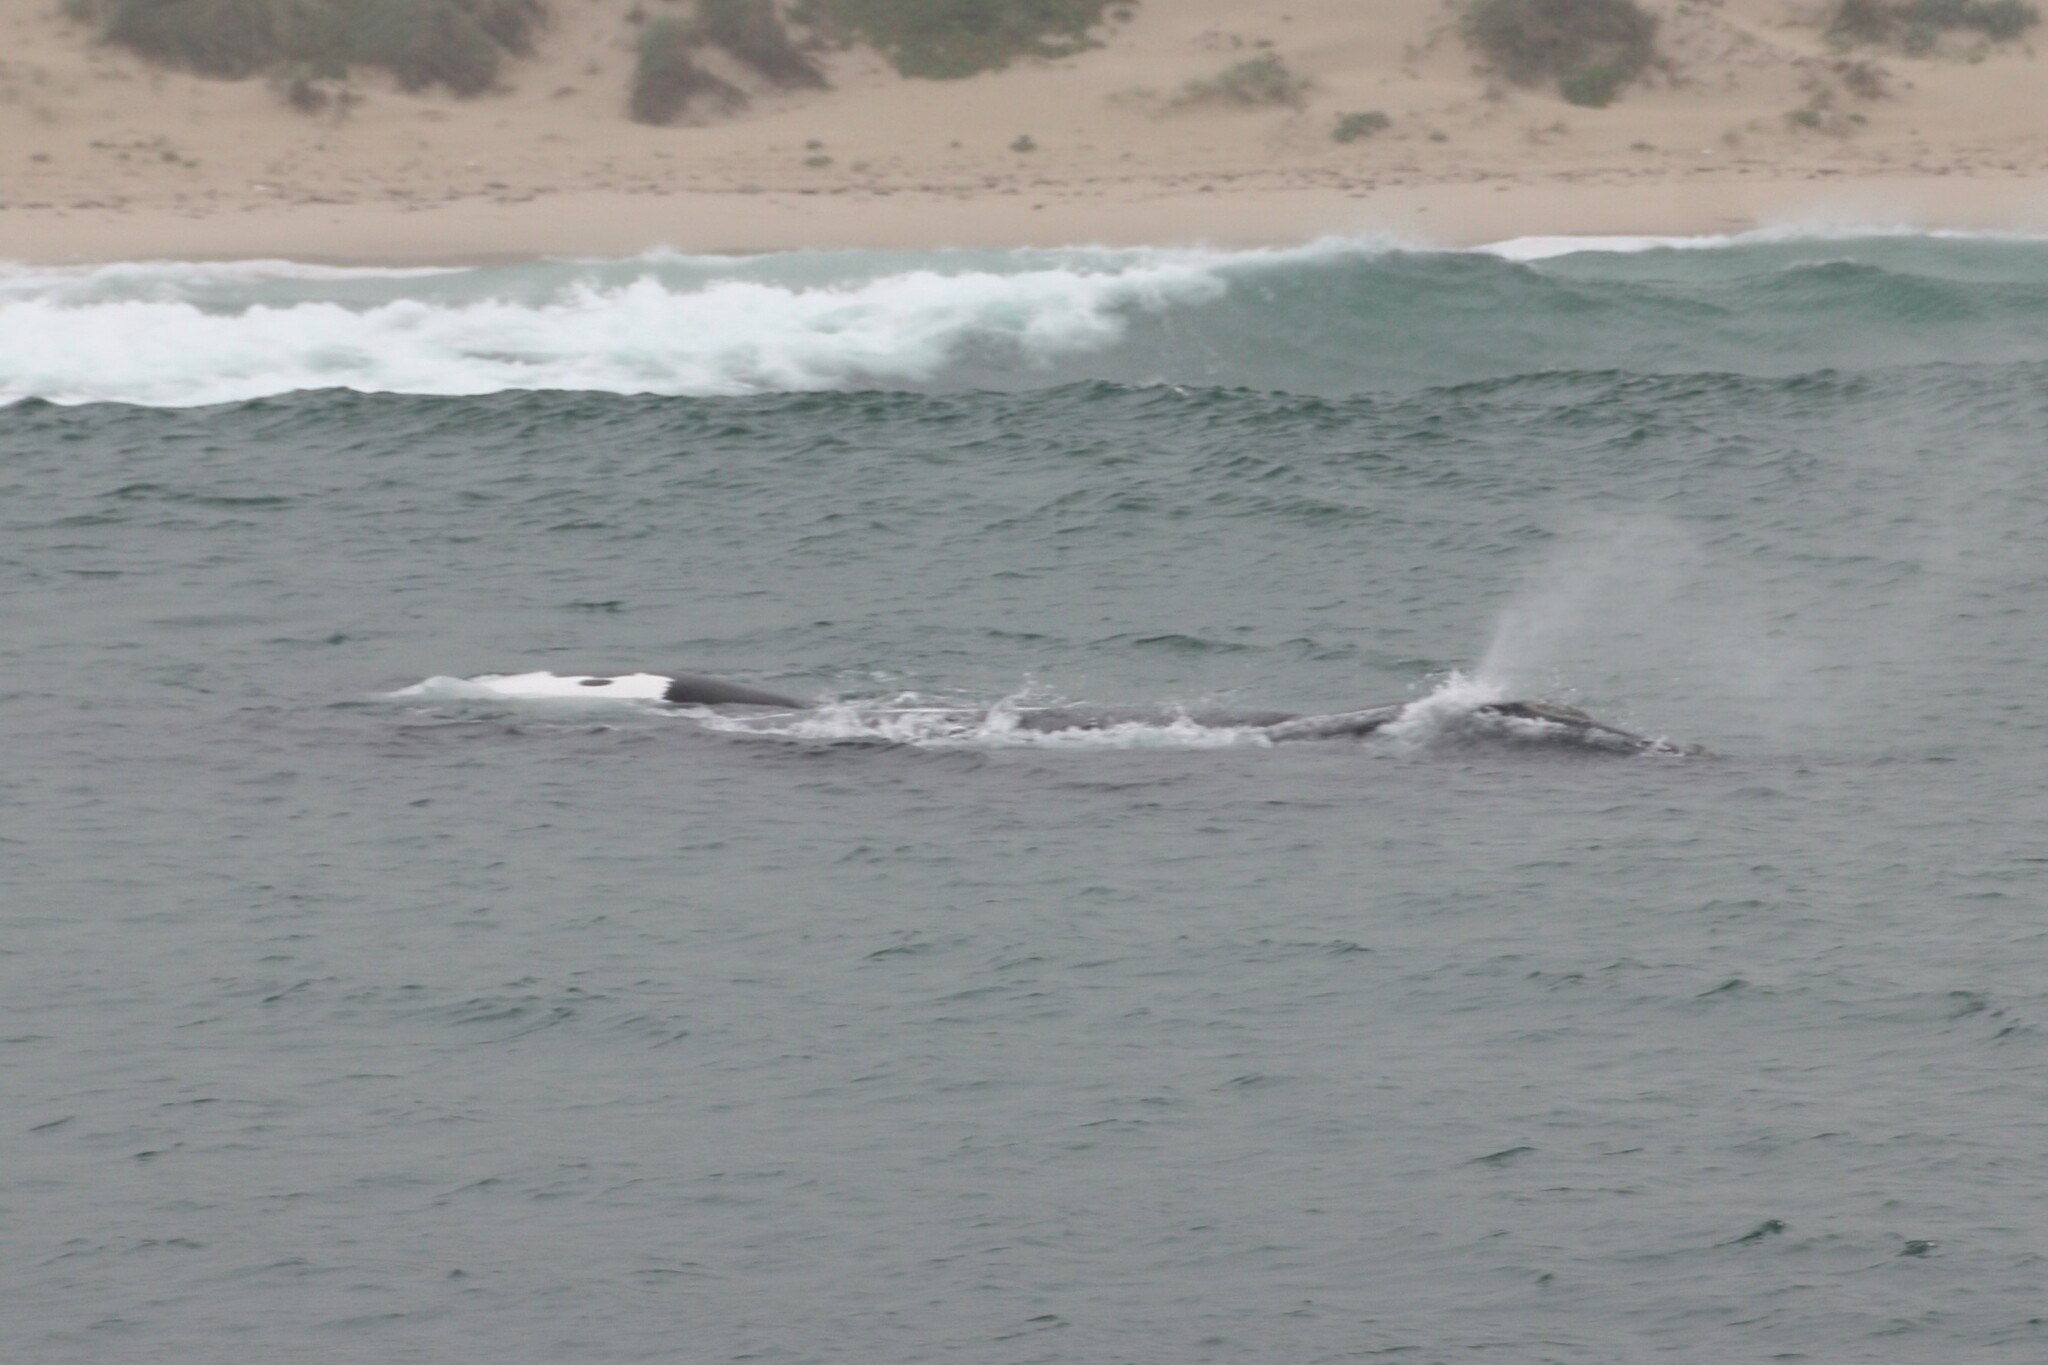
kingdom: Animalia
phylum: Chordata
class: Mammalia
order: Cetacea
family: Balaenidae
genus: Eubalaena
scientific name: Eubalaena australis
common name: Southern right whale
